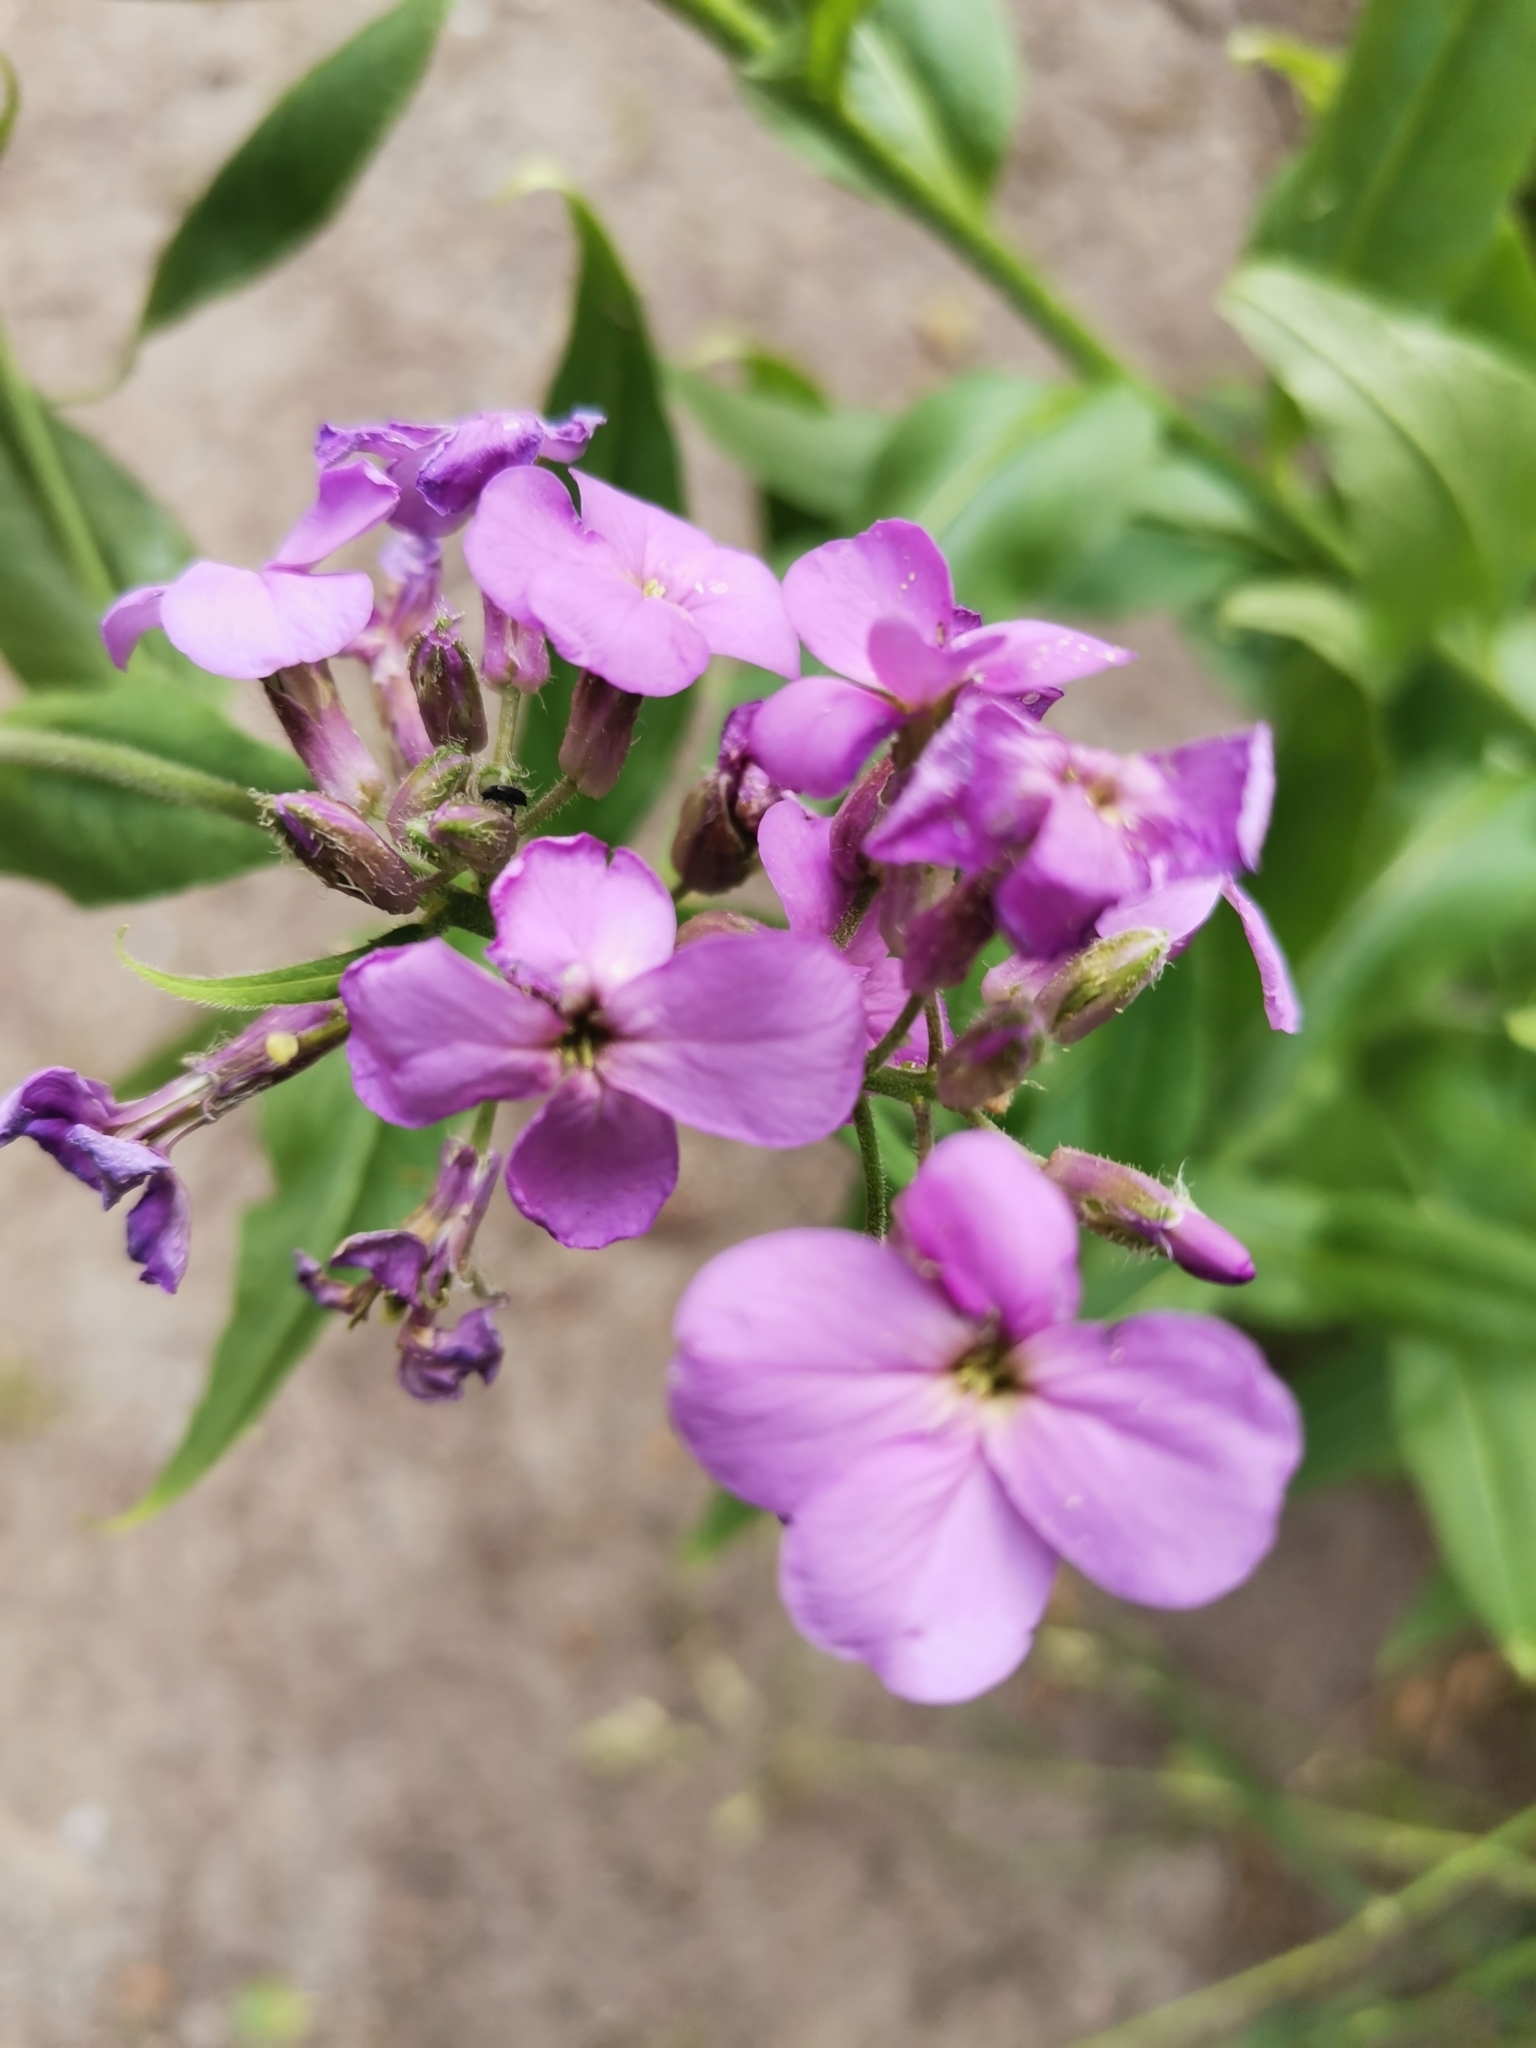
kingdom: Plantae
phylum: Tracheophyta
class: Magnoliopsida
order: Brassicales
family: Brassicaceae
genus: Hesperis
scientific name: Hesperis matronalis
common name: Dame's-violet
